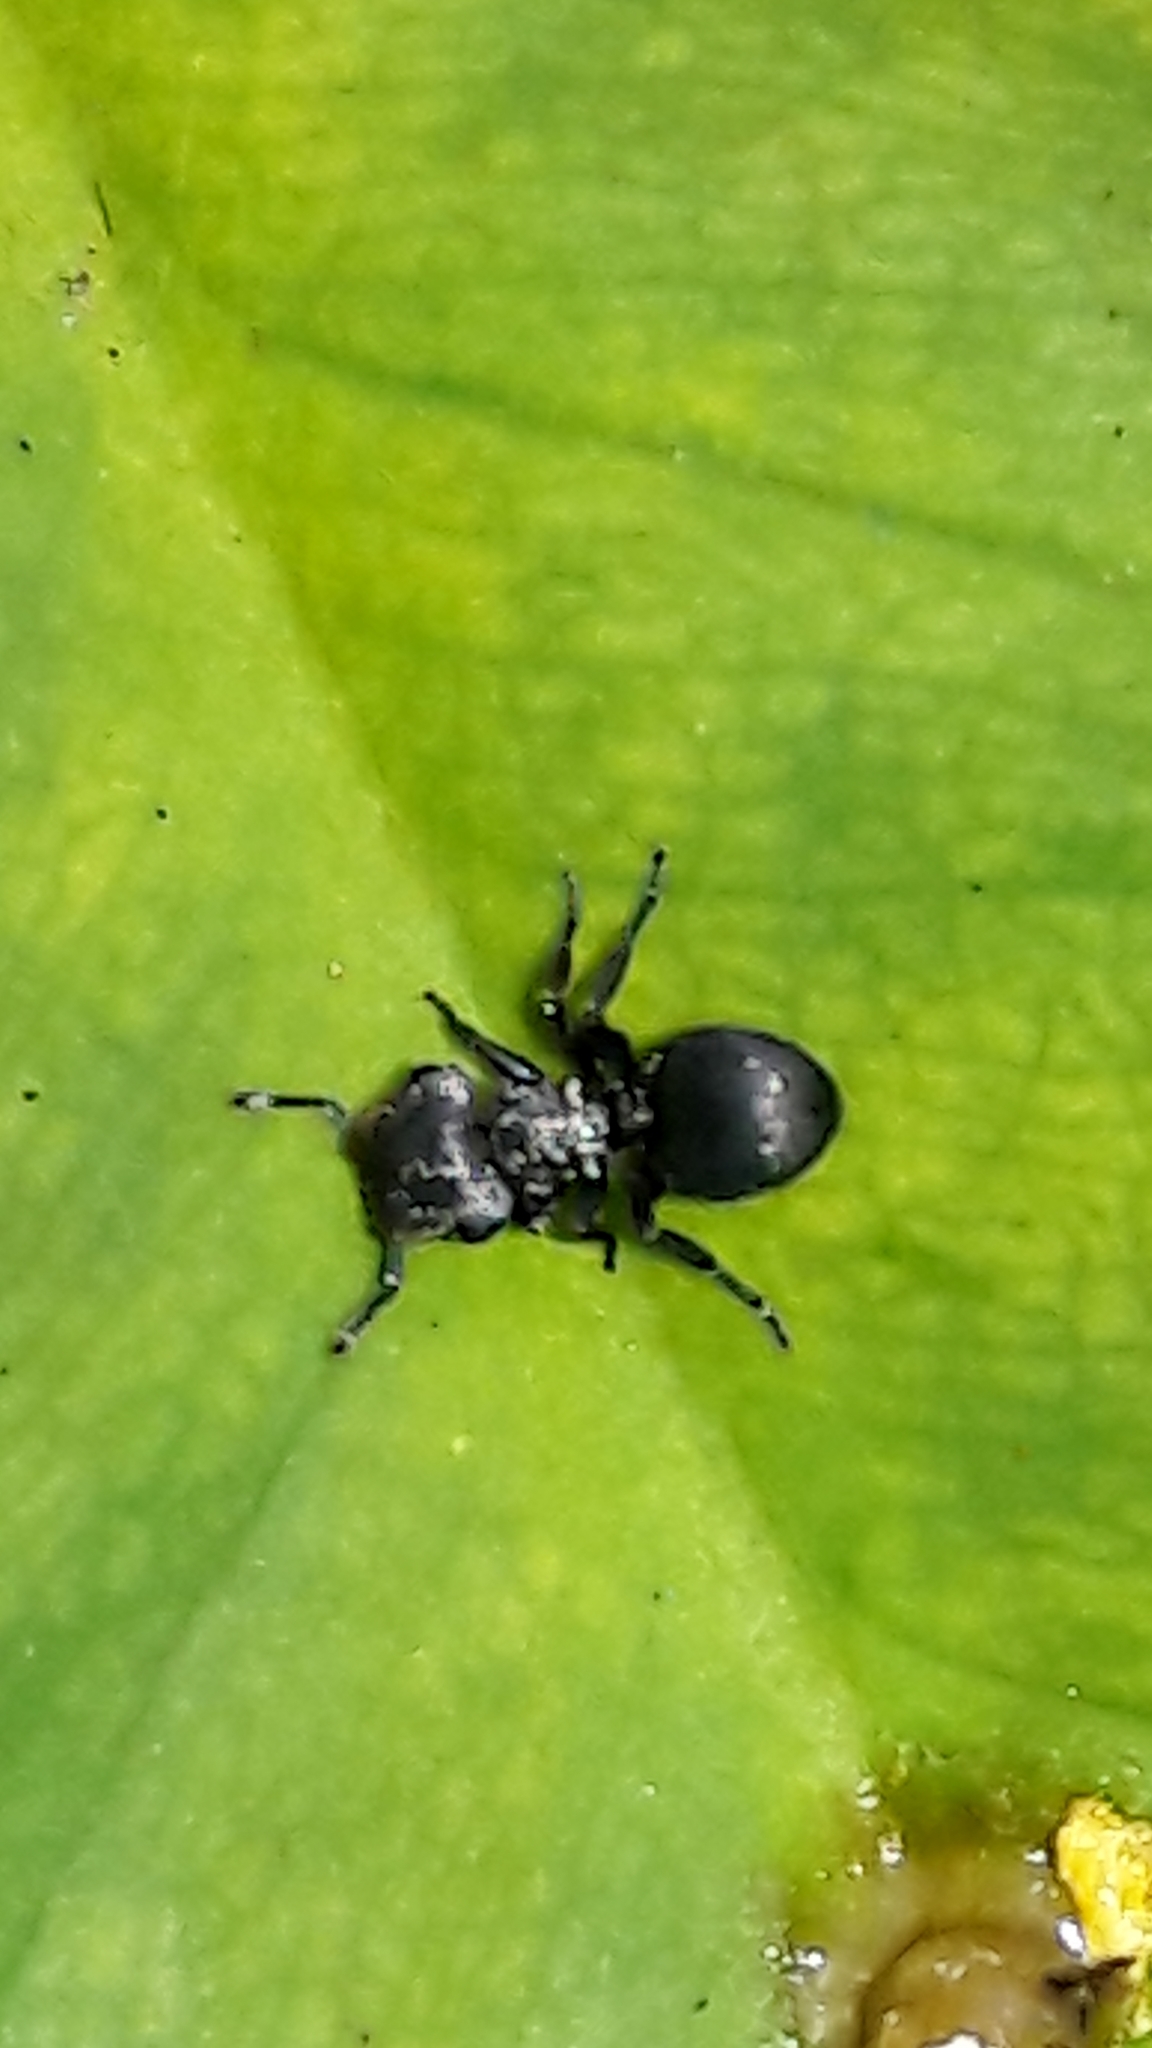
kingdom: Animalia
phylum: Arthropoda
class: Insecta
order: Hymenoptera
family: Formicidae
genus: Cephalotes
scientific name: Cephalotes
